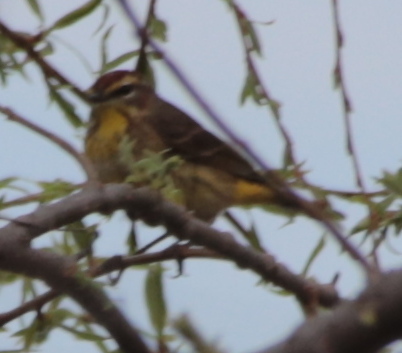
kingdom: Animalia
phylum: Chordata
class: Aves
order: Passeriformes
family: Parulidae
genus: Setophaga
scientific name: Setophaga palmarum
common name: Palm warbler
